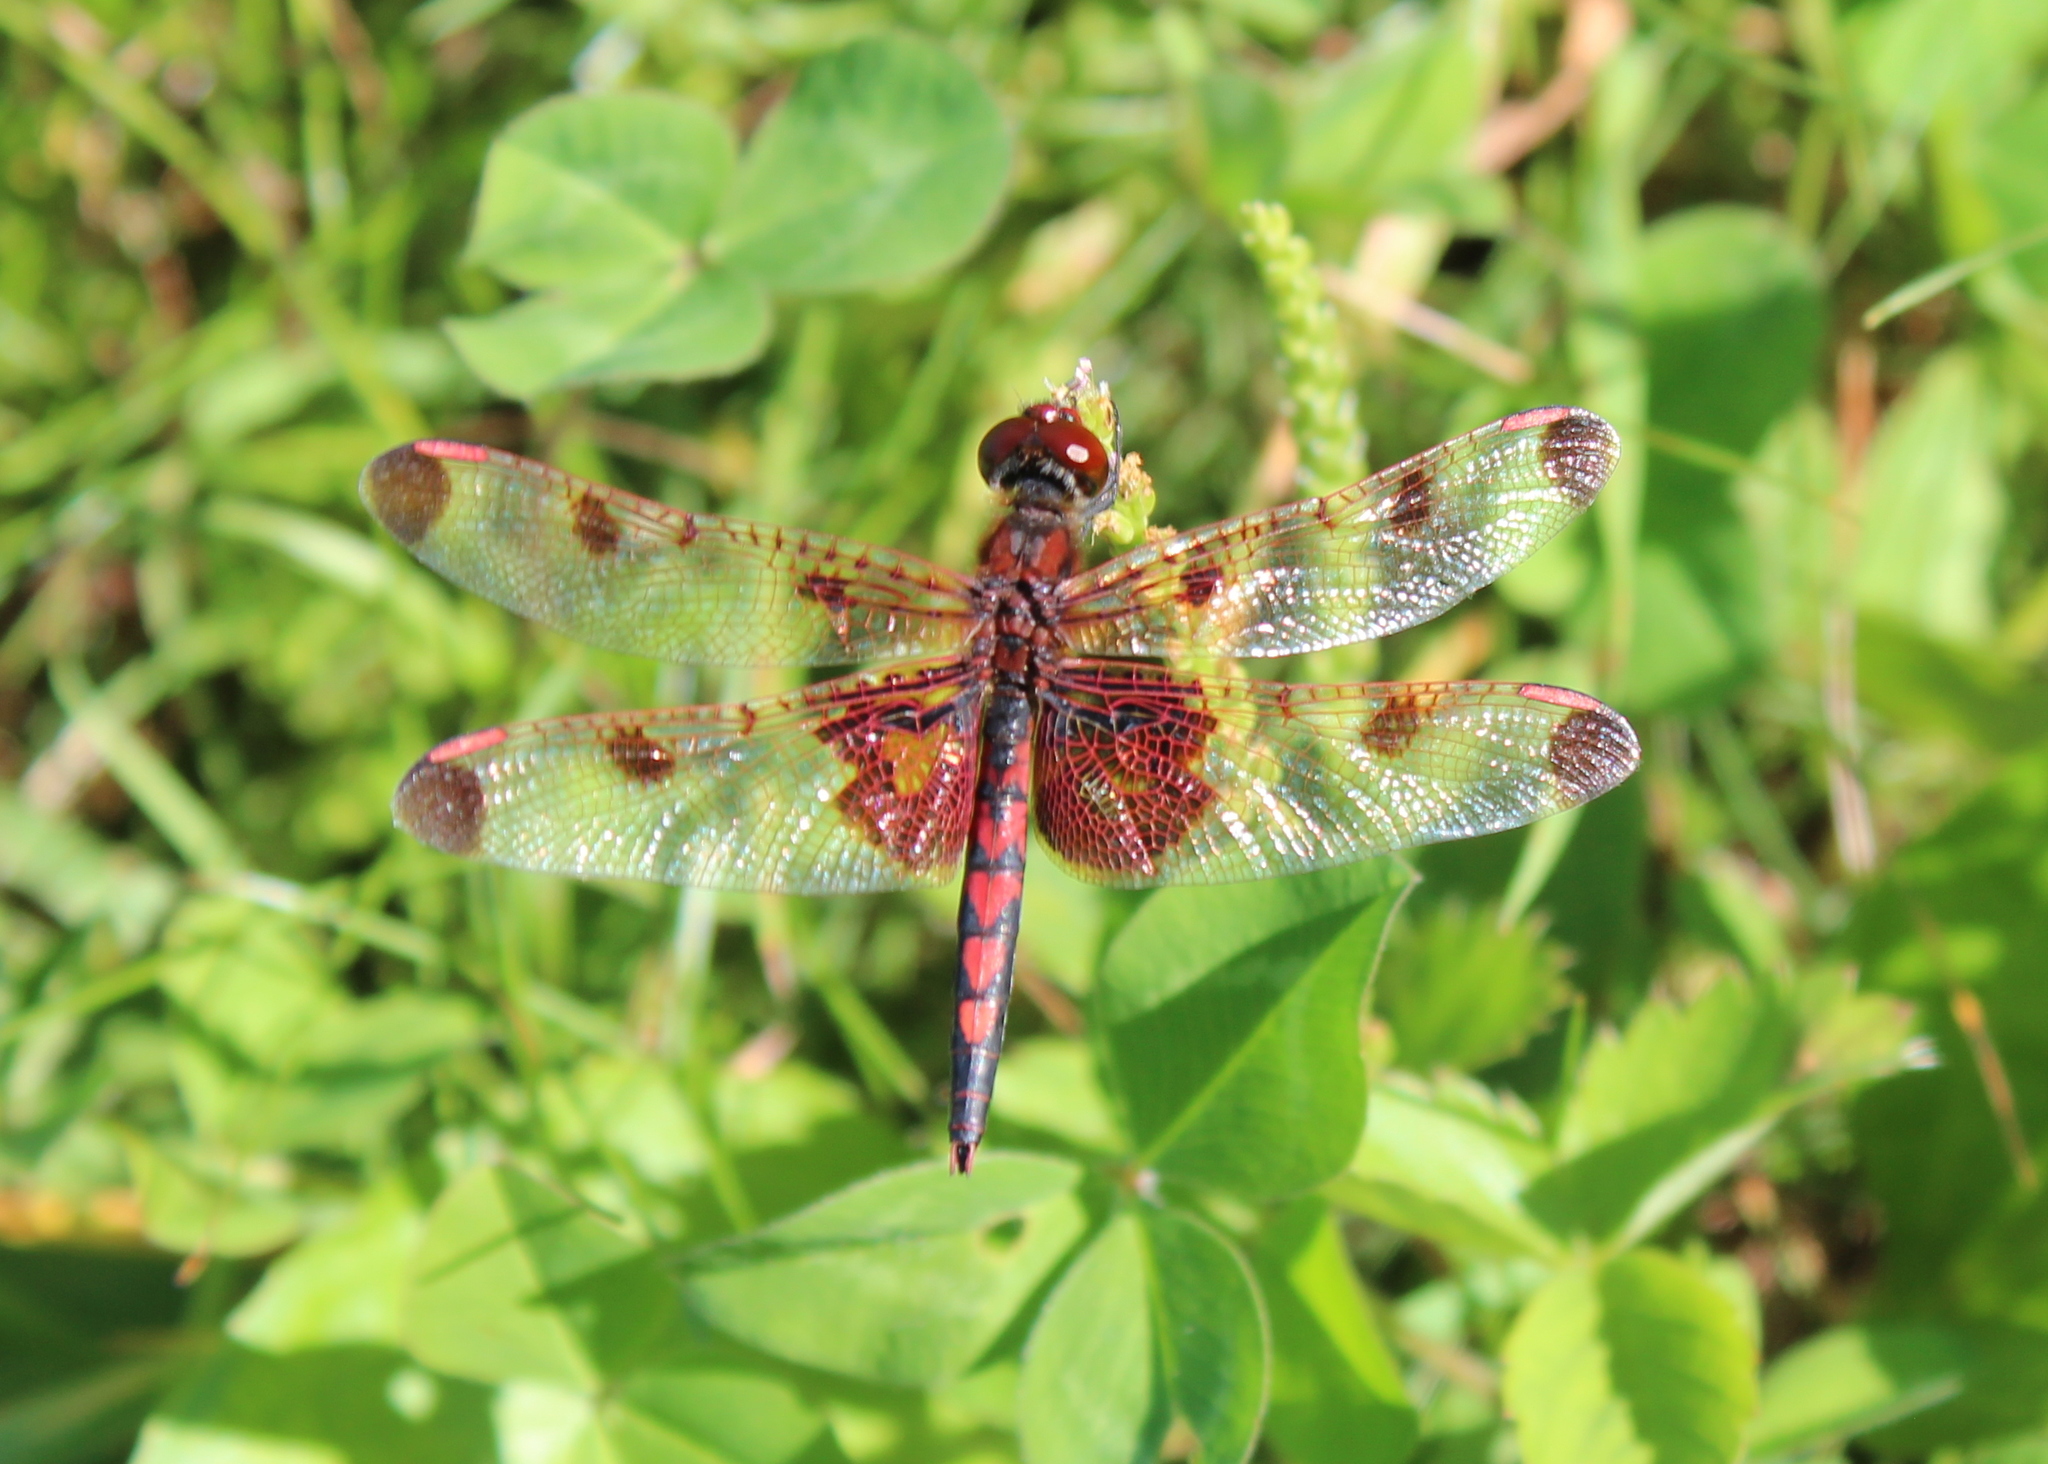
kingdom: Animalia
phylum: Arthropoda
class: Insecta
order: Odonata
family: Libellulidae
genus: Celithemis
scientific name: Celithemis elisa
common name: Calico pennant
